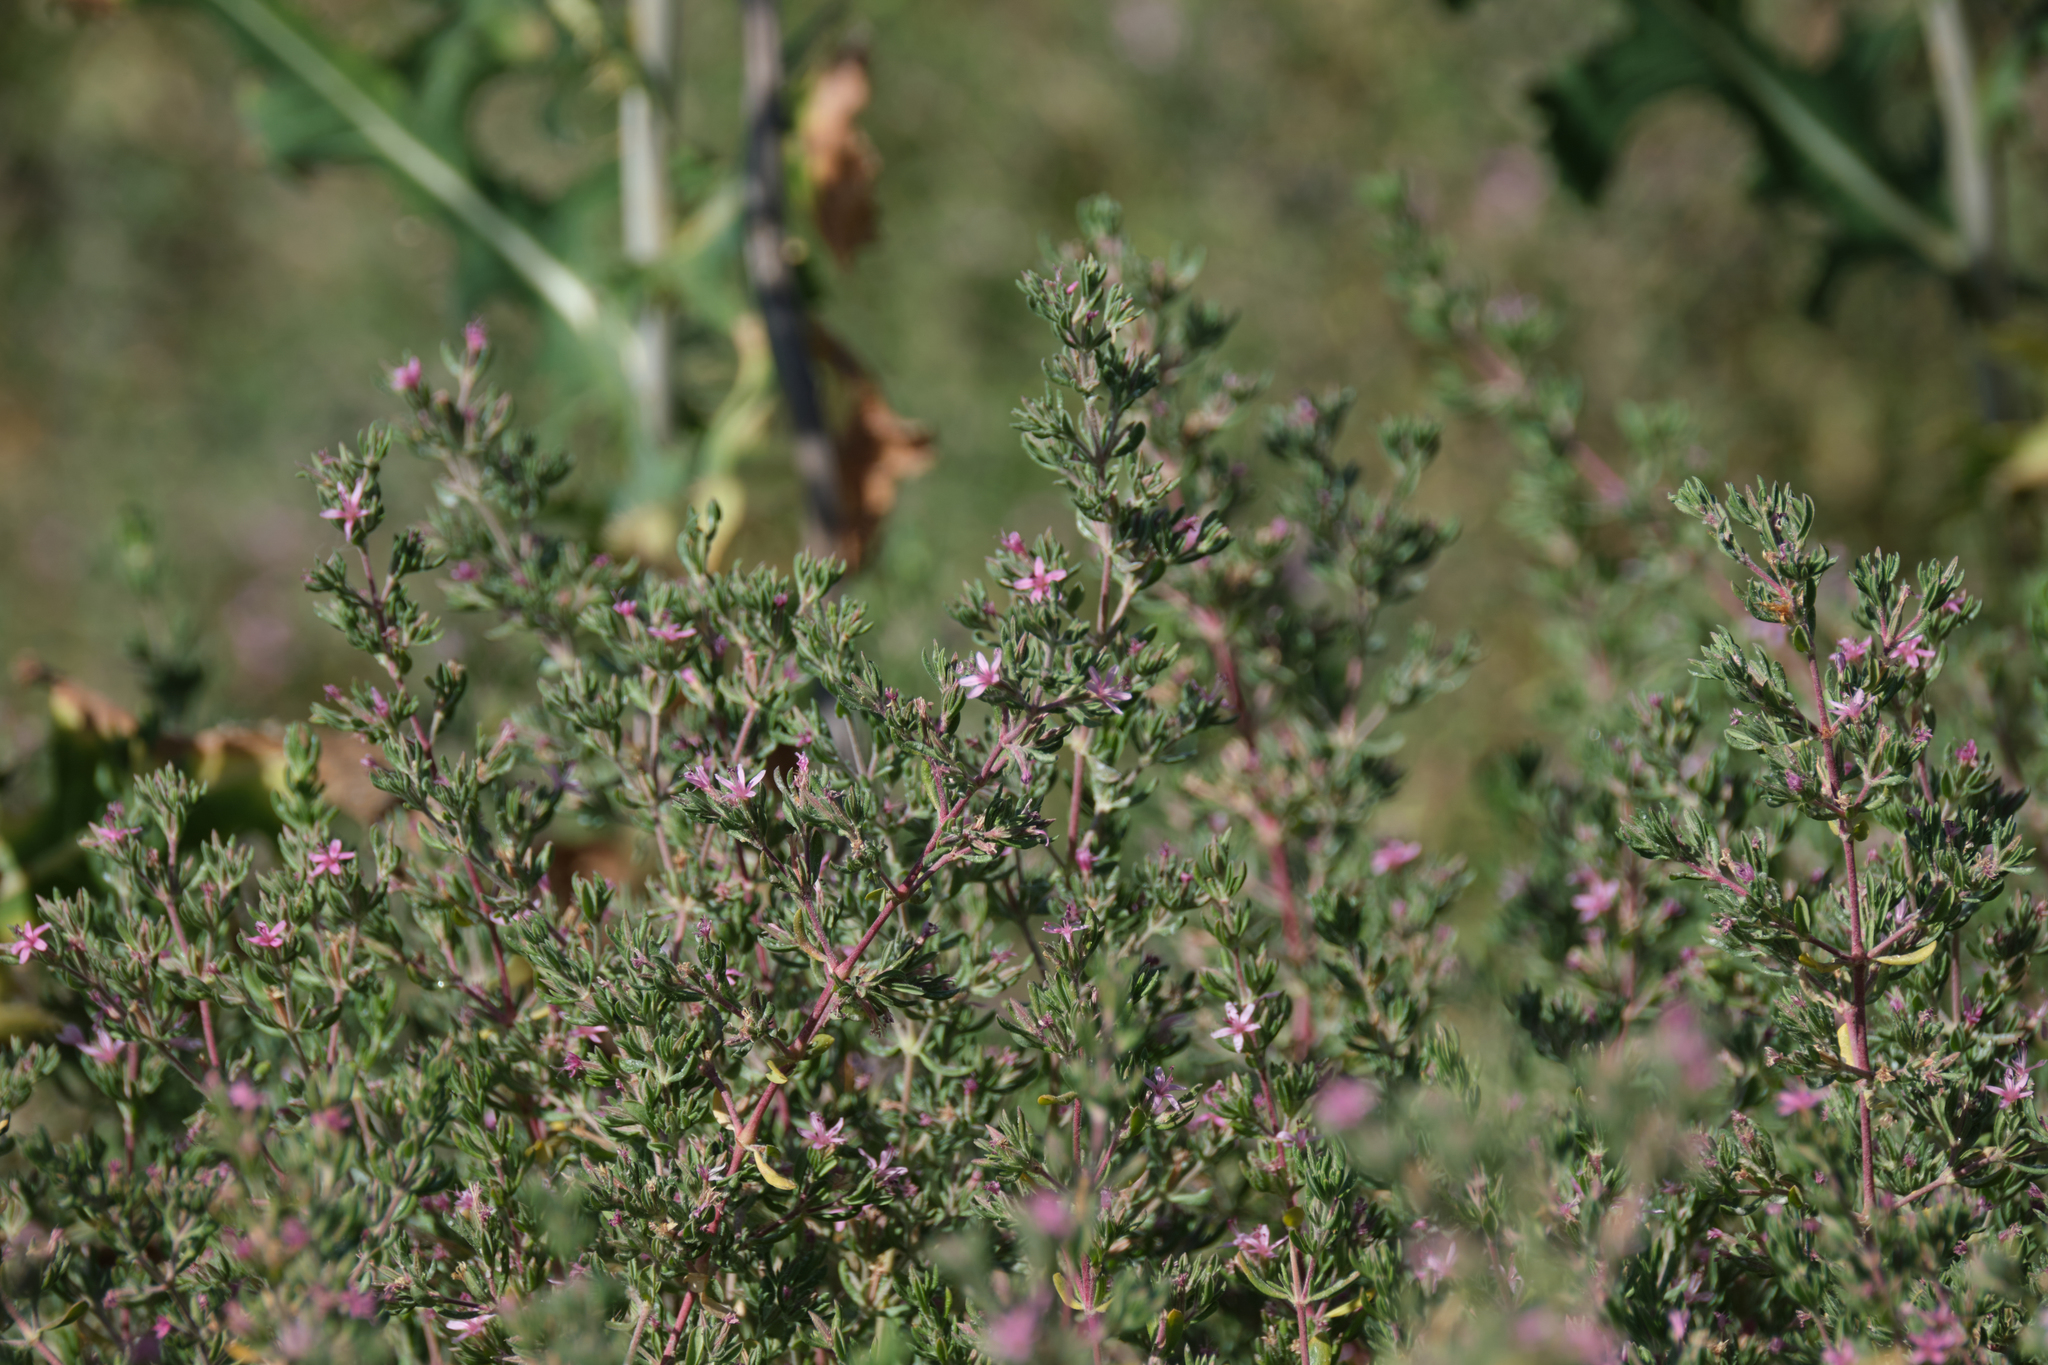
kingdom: Plantae
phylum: Tracheophyta
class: Magnoliopsida
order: Caryophyllales
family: Frankeniaceae
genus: Frankenia
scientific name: Frankenia salina
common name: Alkali seaheath
